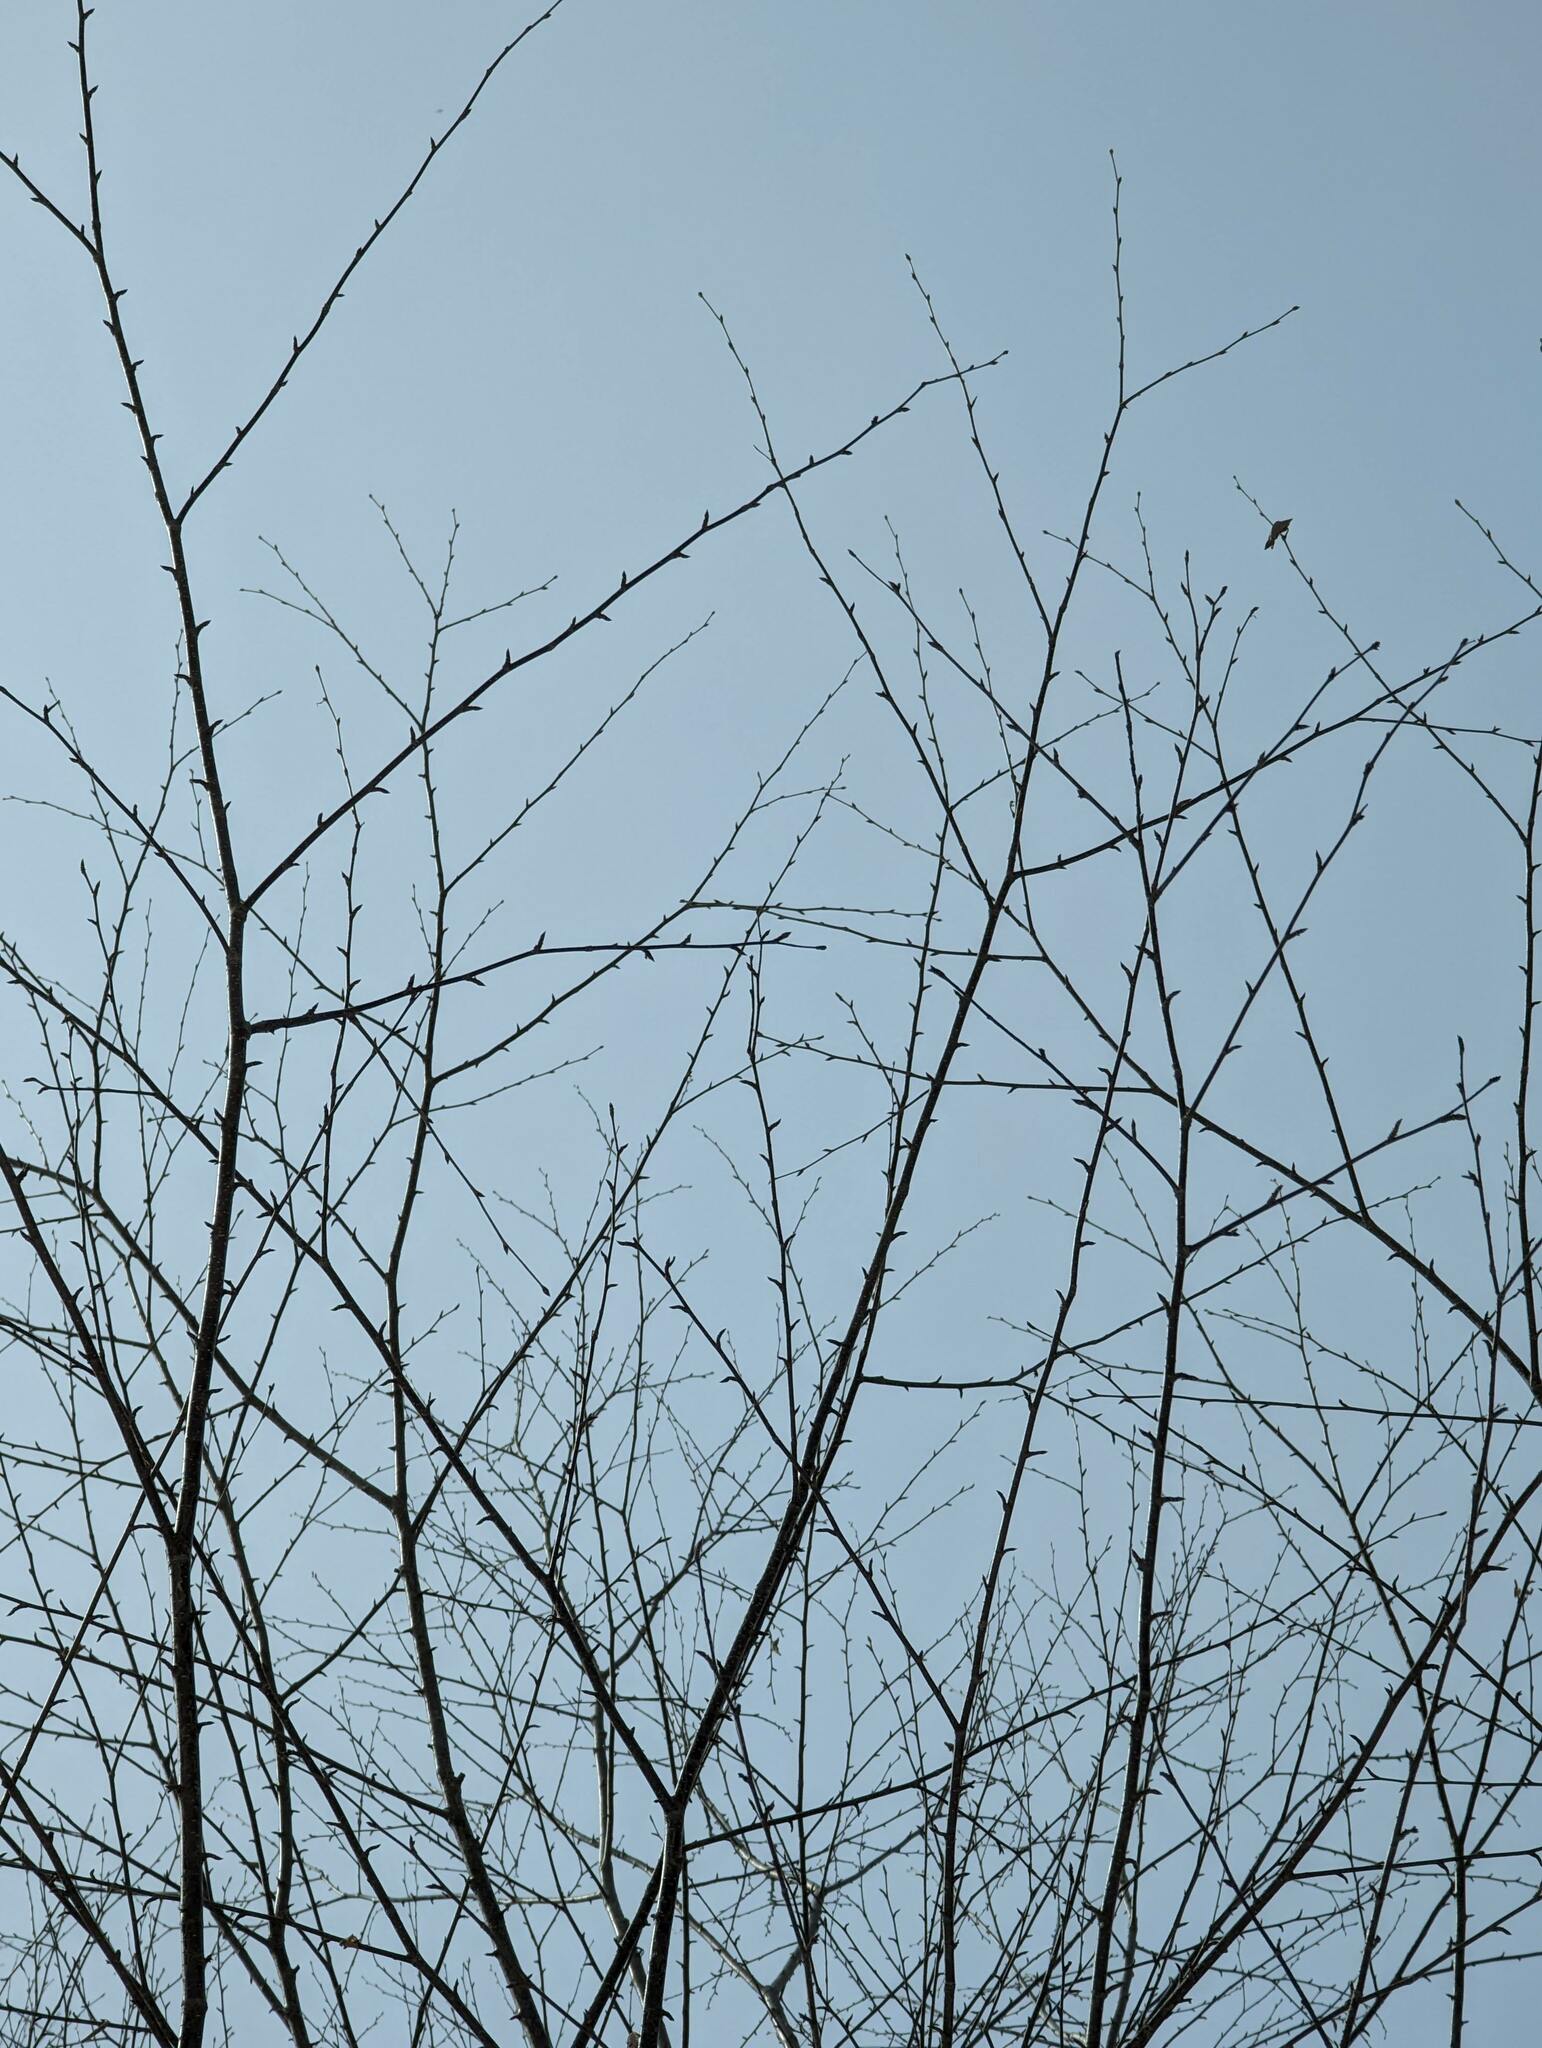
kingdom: Plantae
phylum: Tracheophyta
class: Magnoliopsida
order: Fagales
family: Betulaceae
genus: Betula
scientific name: Betula alleghaniensis
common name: Yellow birch
